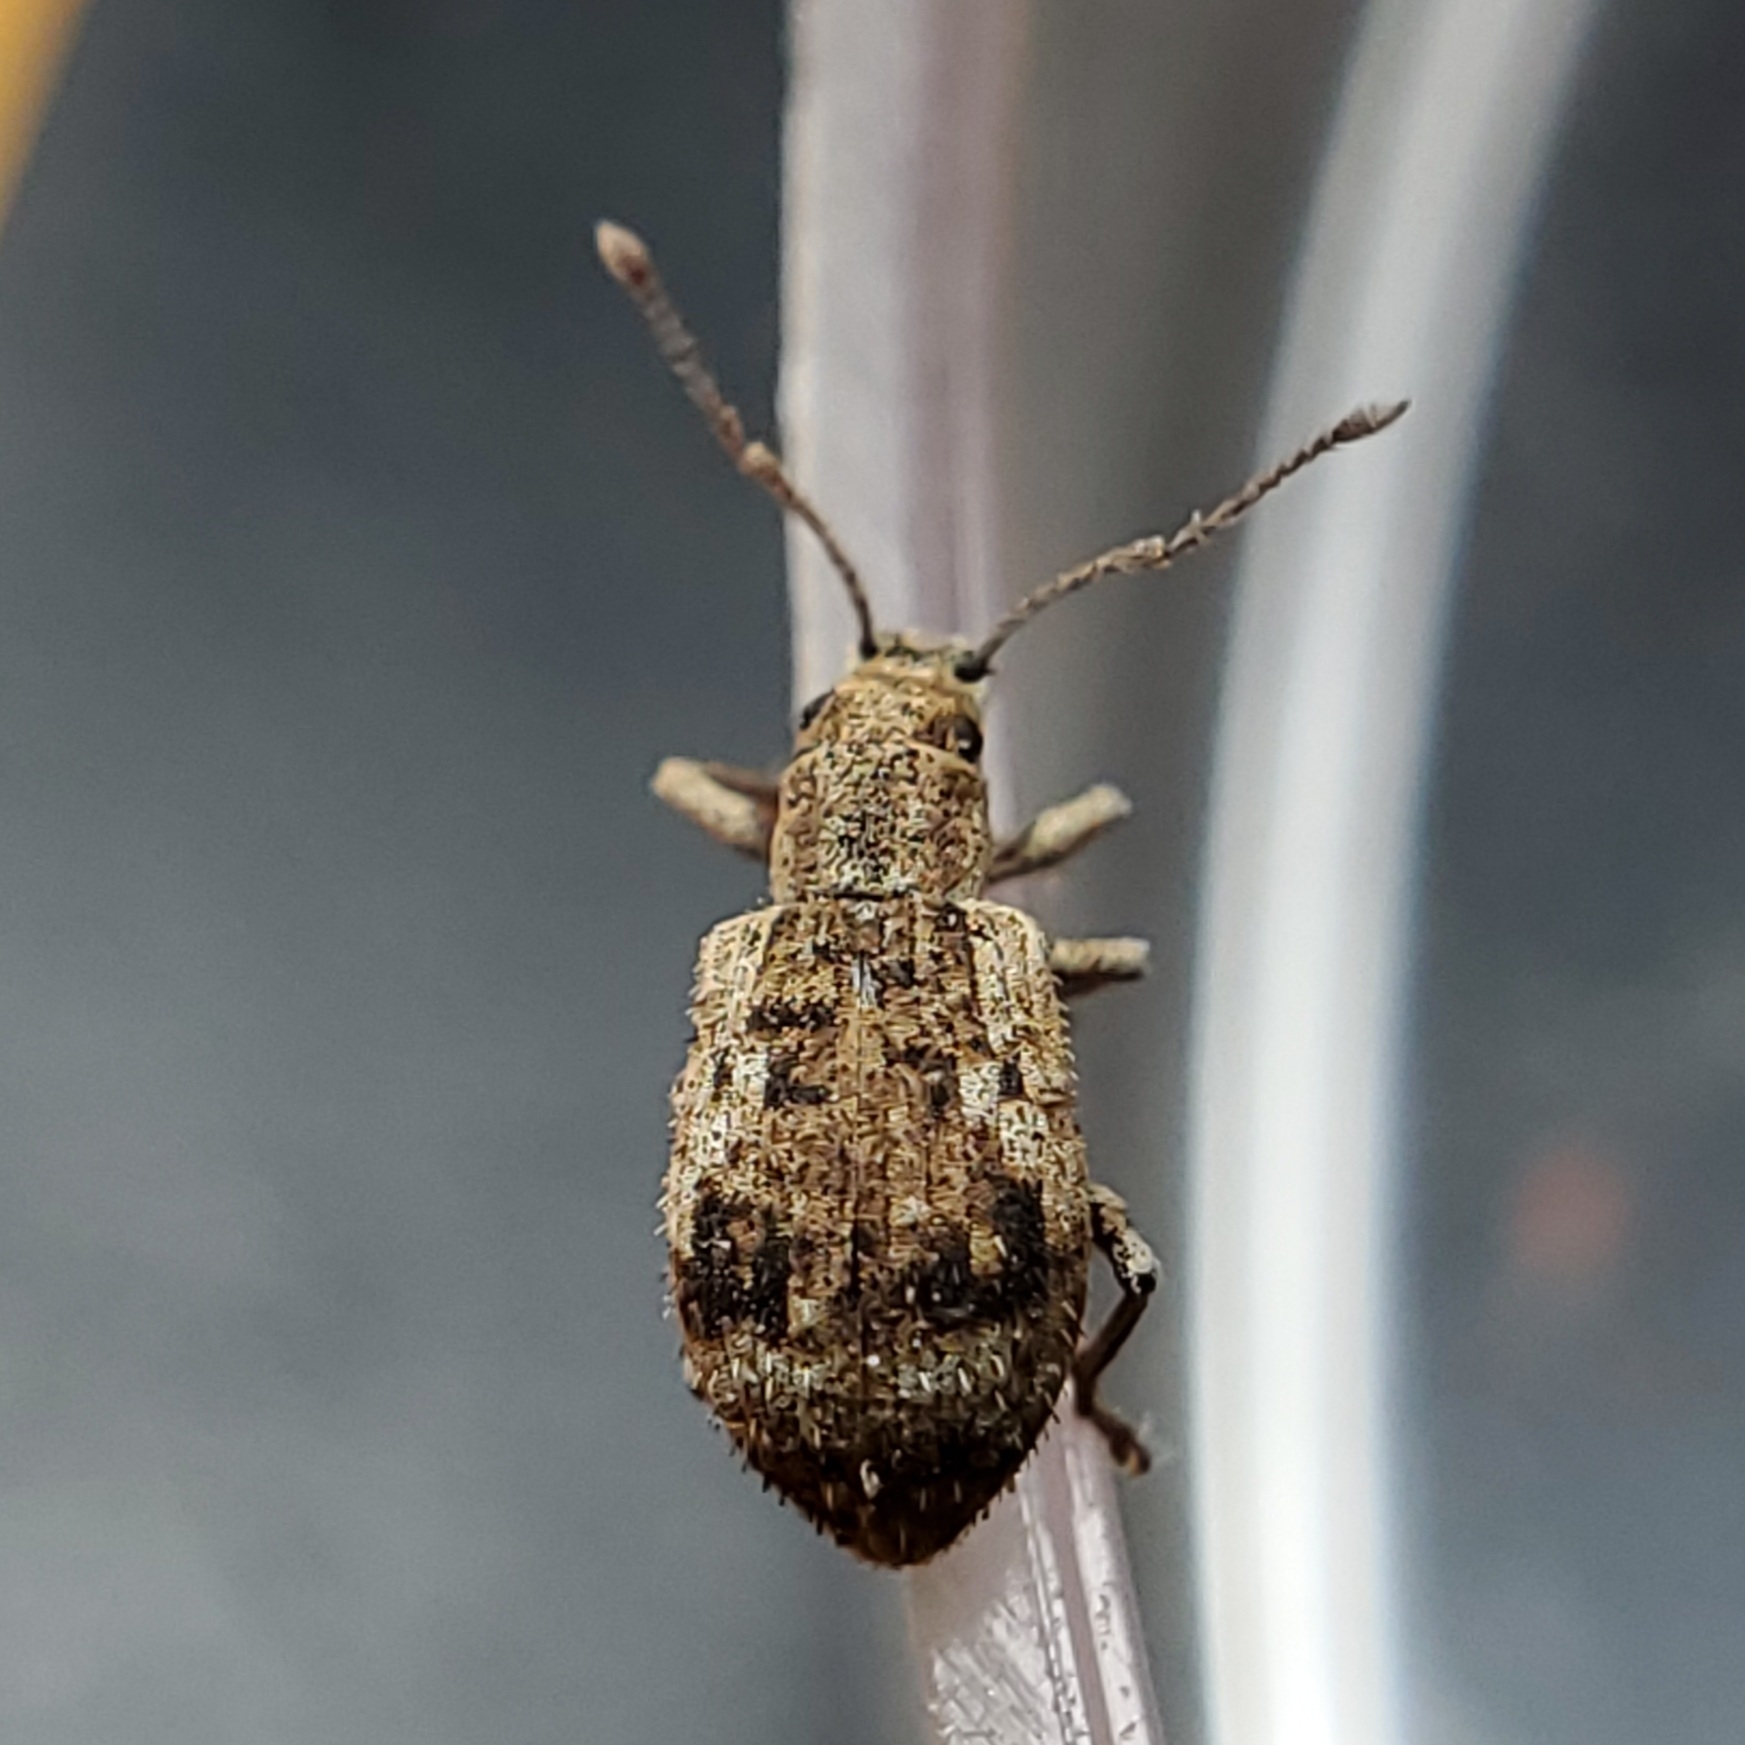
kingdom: Animalia
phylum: Arthropoda
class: Insecta
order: Coleoptera
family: Curculionidae
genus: Pseudoedophrys
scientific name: Pseudoedophrys hilleri
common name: Weevil
